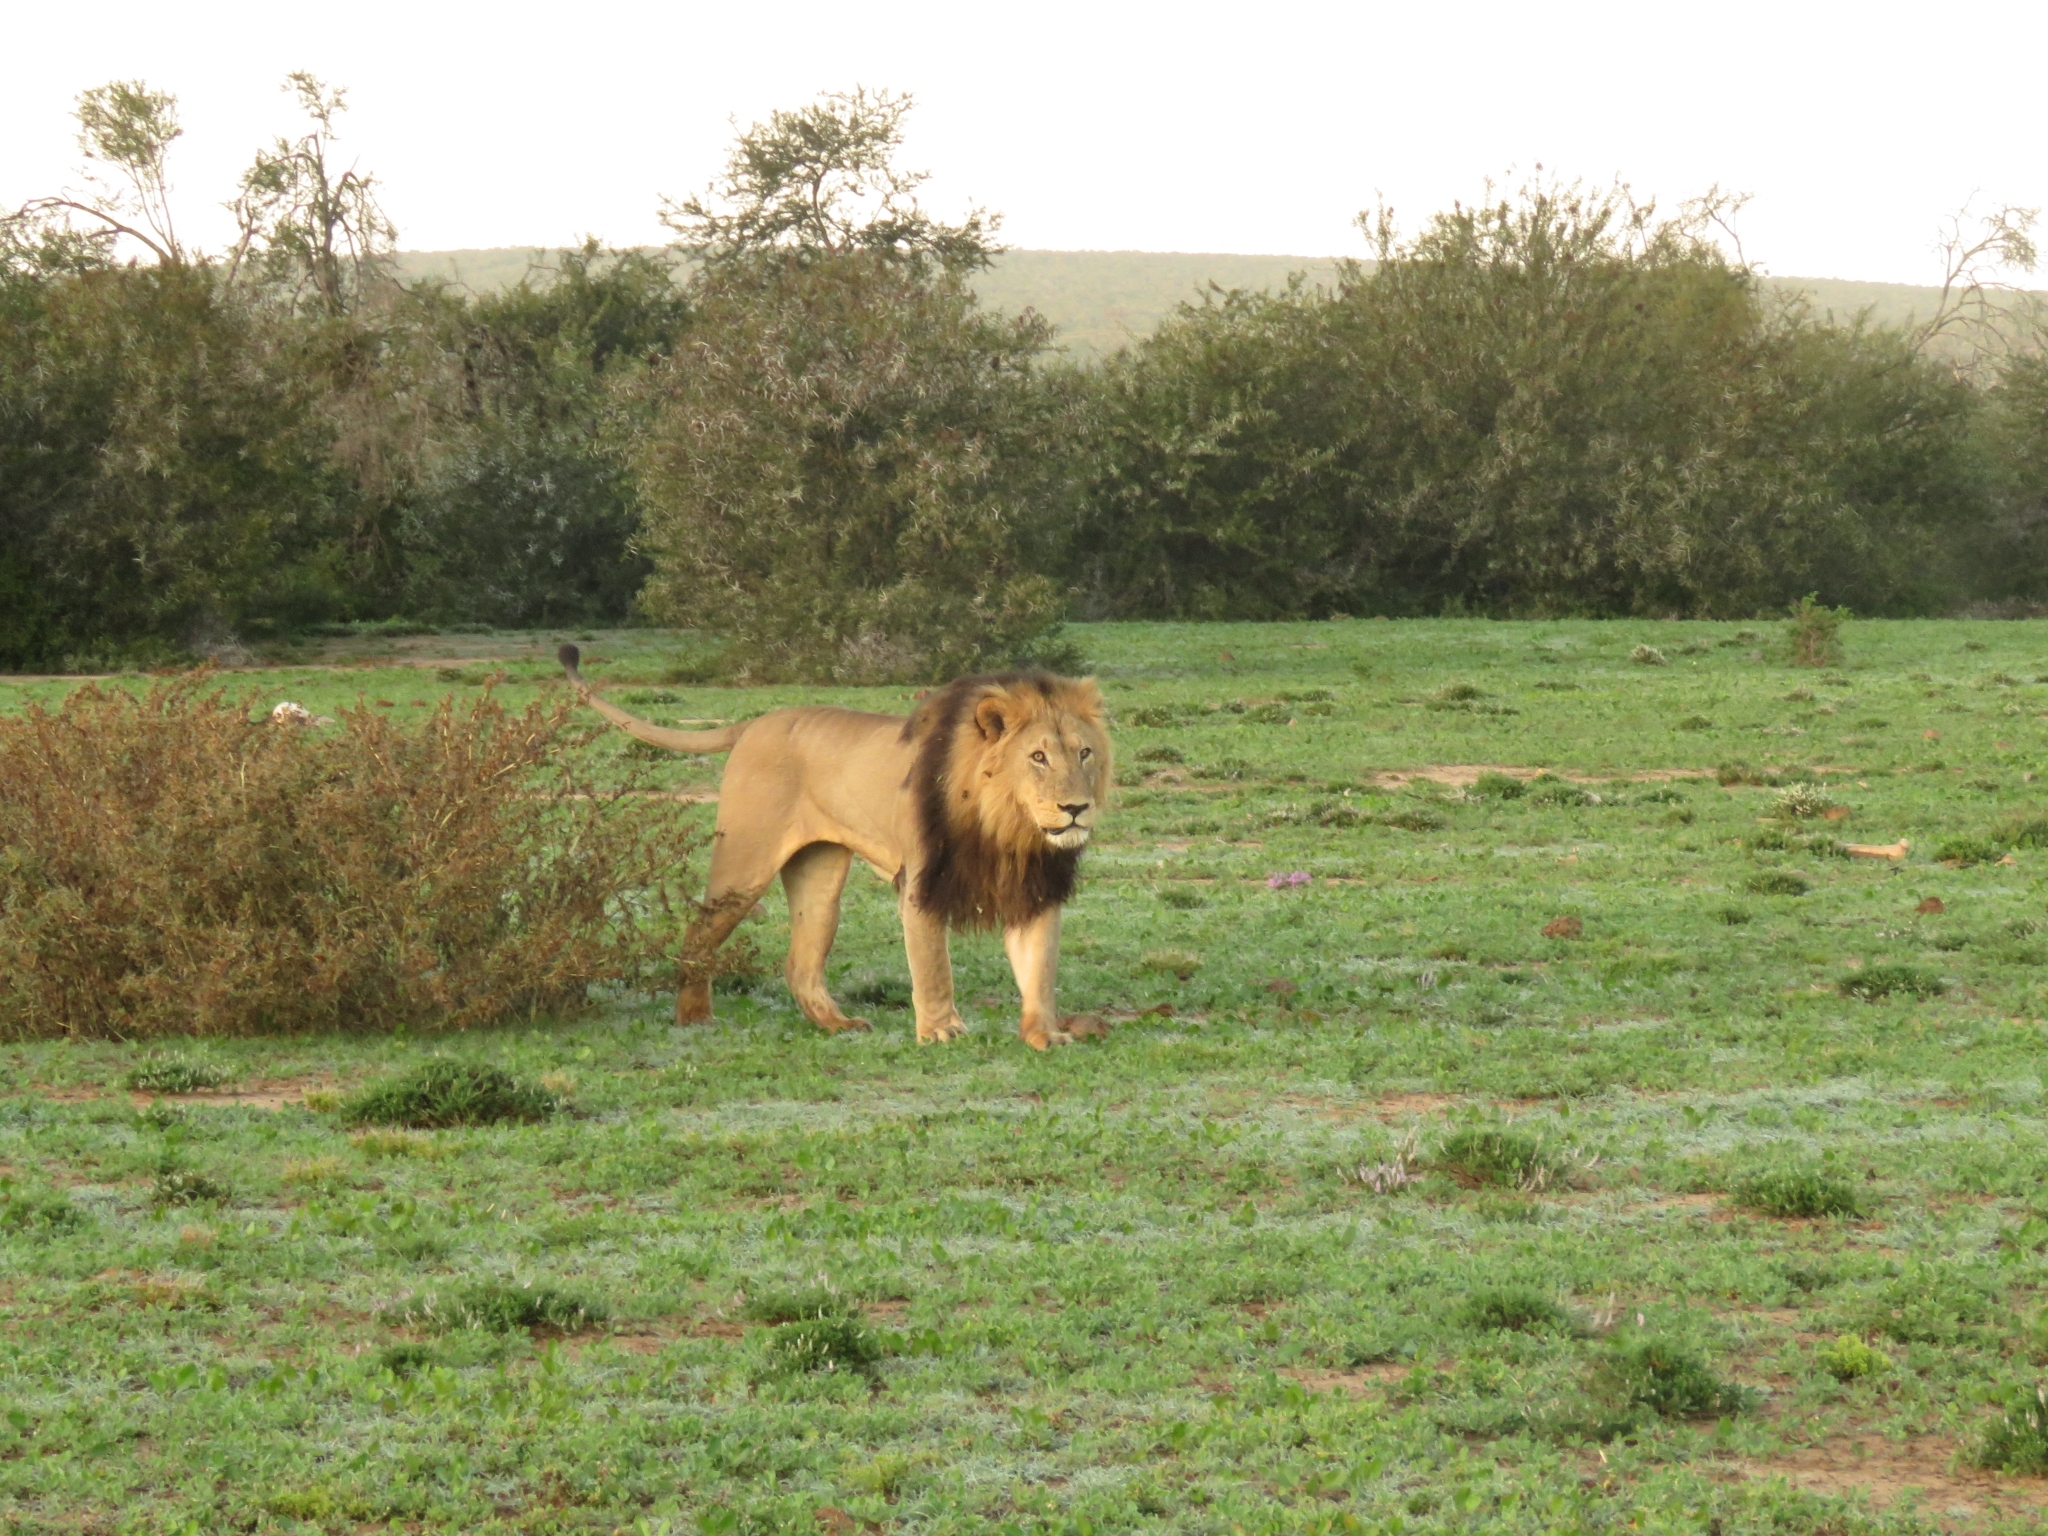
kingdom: Animalia
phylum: Chordata
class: Mammalia
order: Carnivora
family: Felidae
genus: Panthera
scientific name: Panthera leo
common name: Lion
